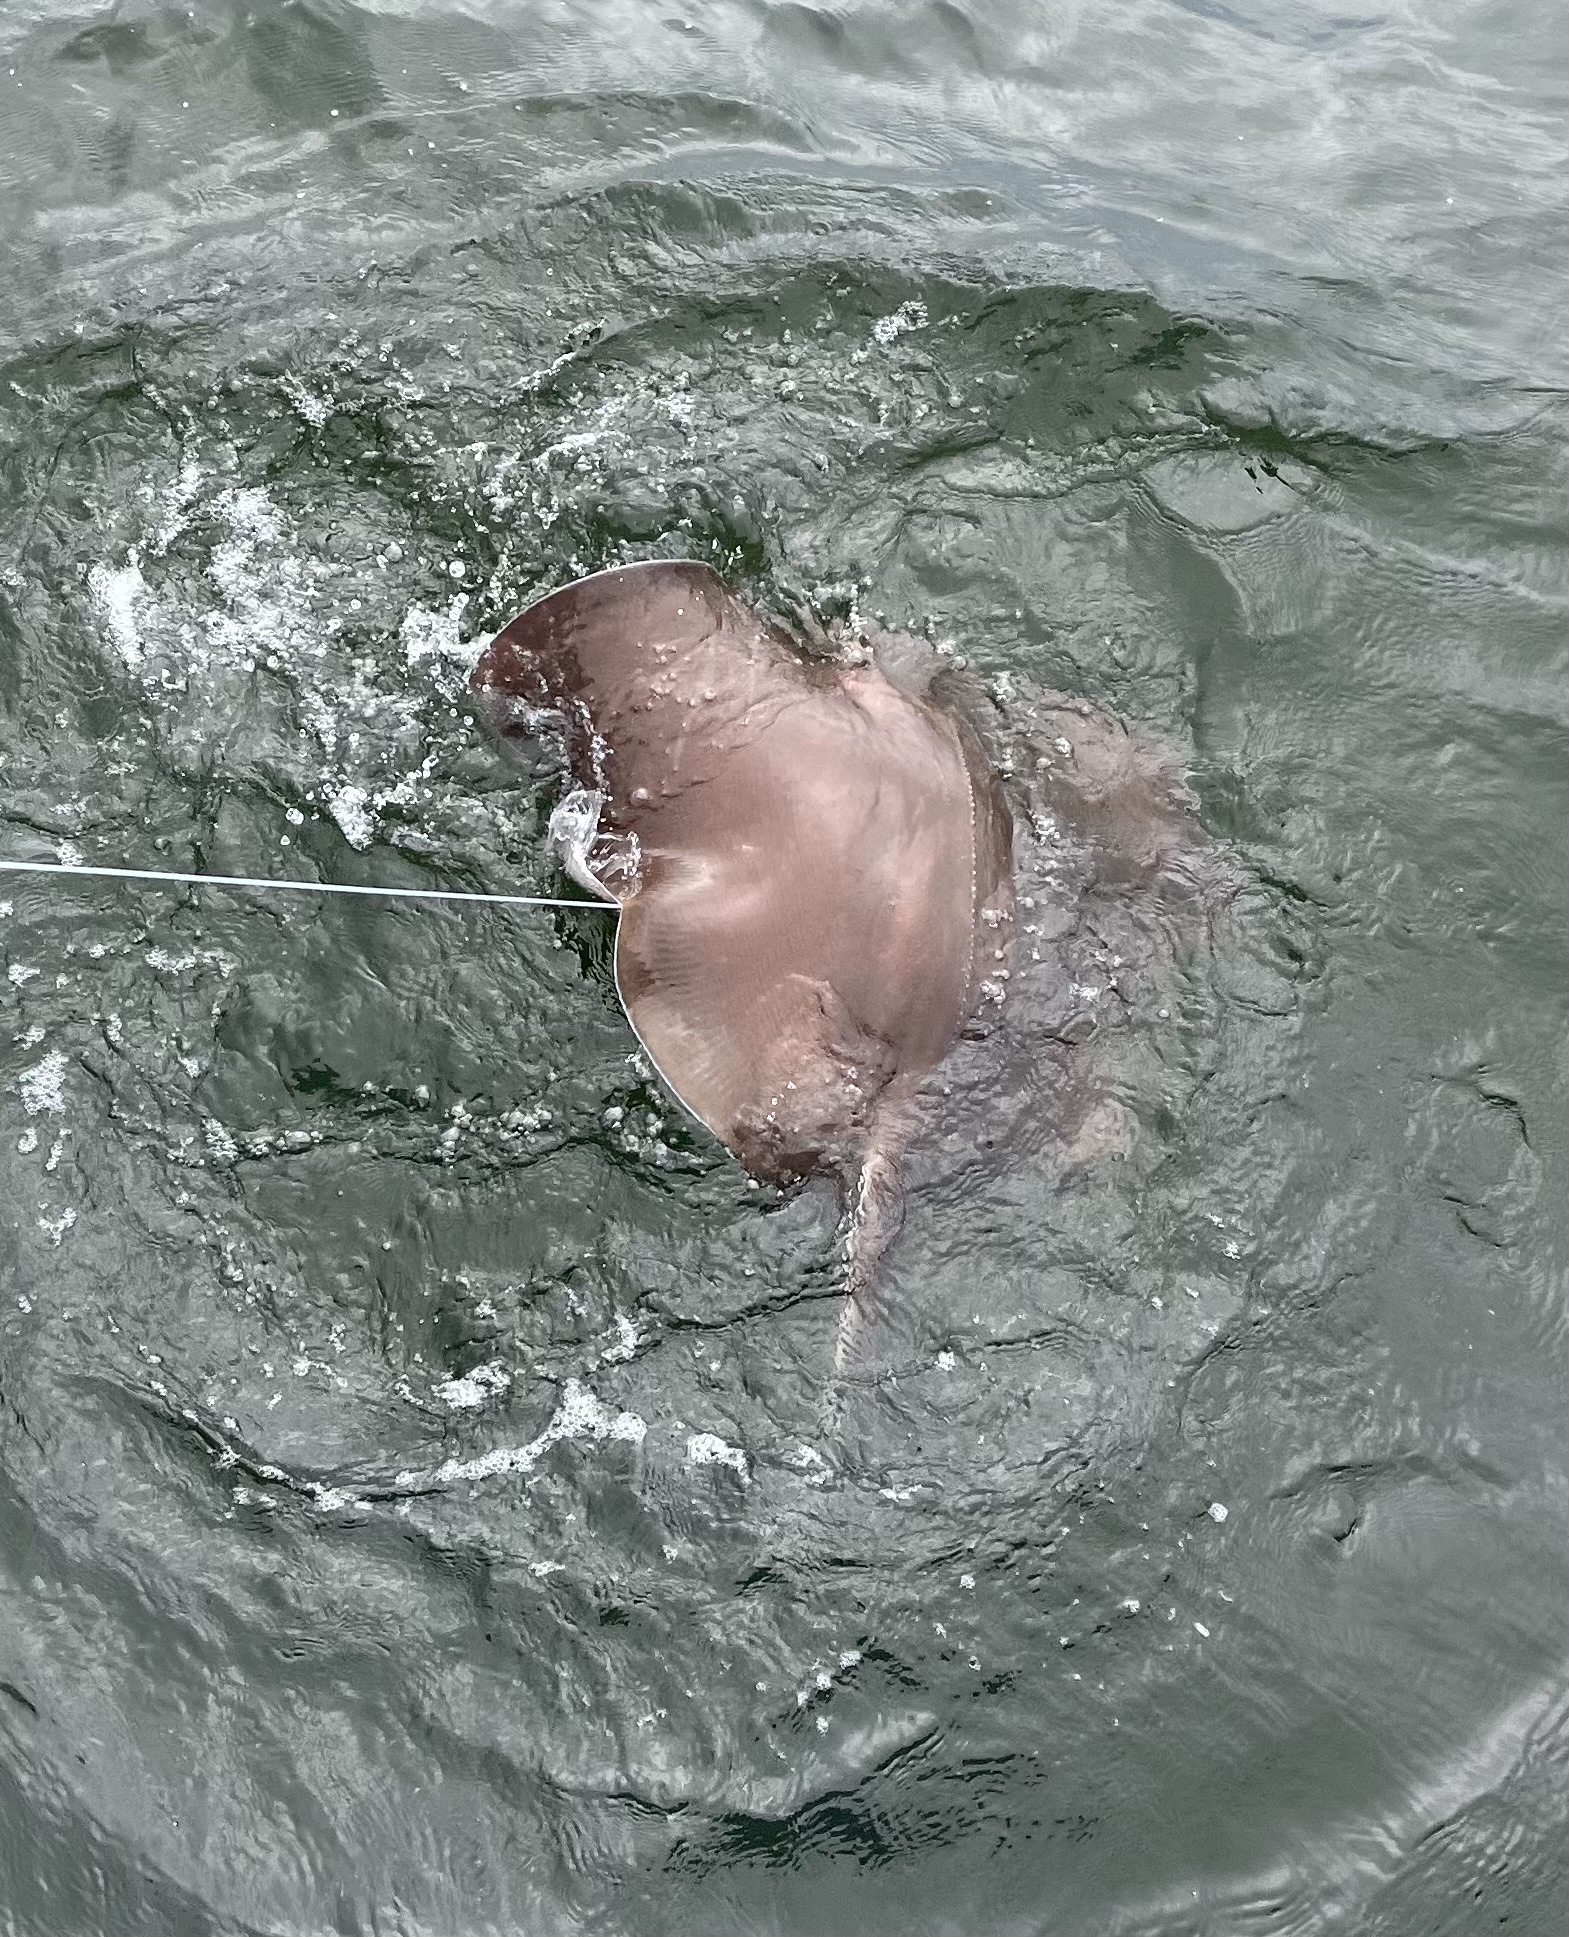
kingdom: Animalia
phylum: Chordata
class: Elasmobranchii
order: Myliobatiformes
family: Dasyatidae
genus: Hypanus
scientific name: Hypanus americanus
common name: Southern stingray
